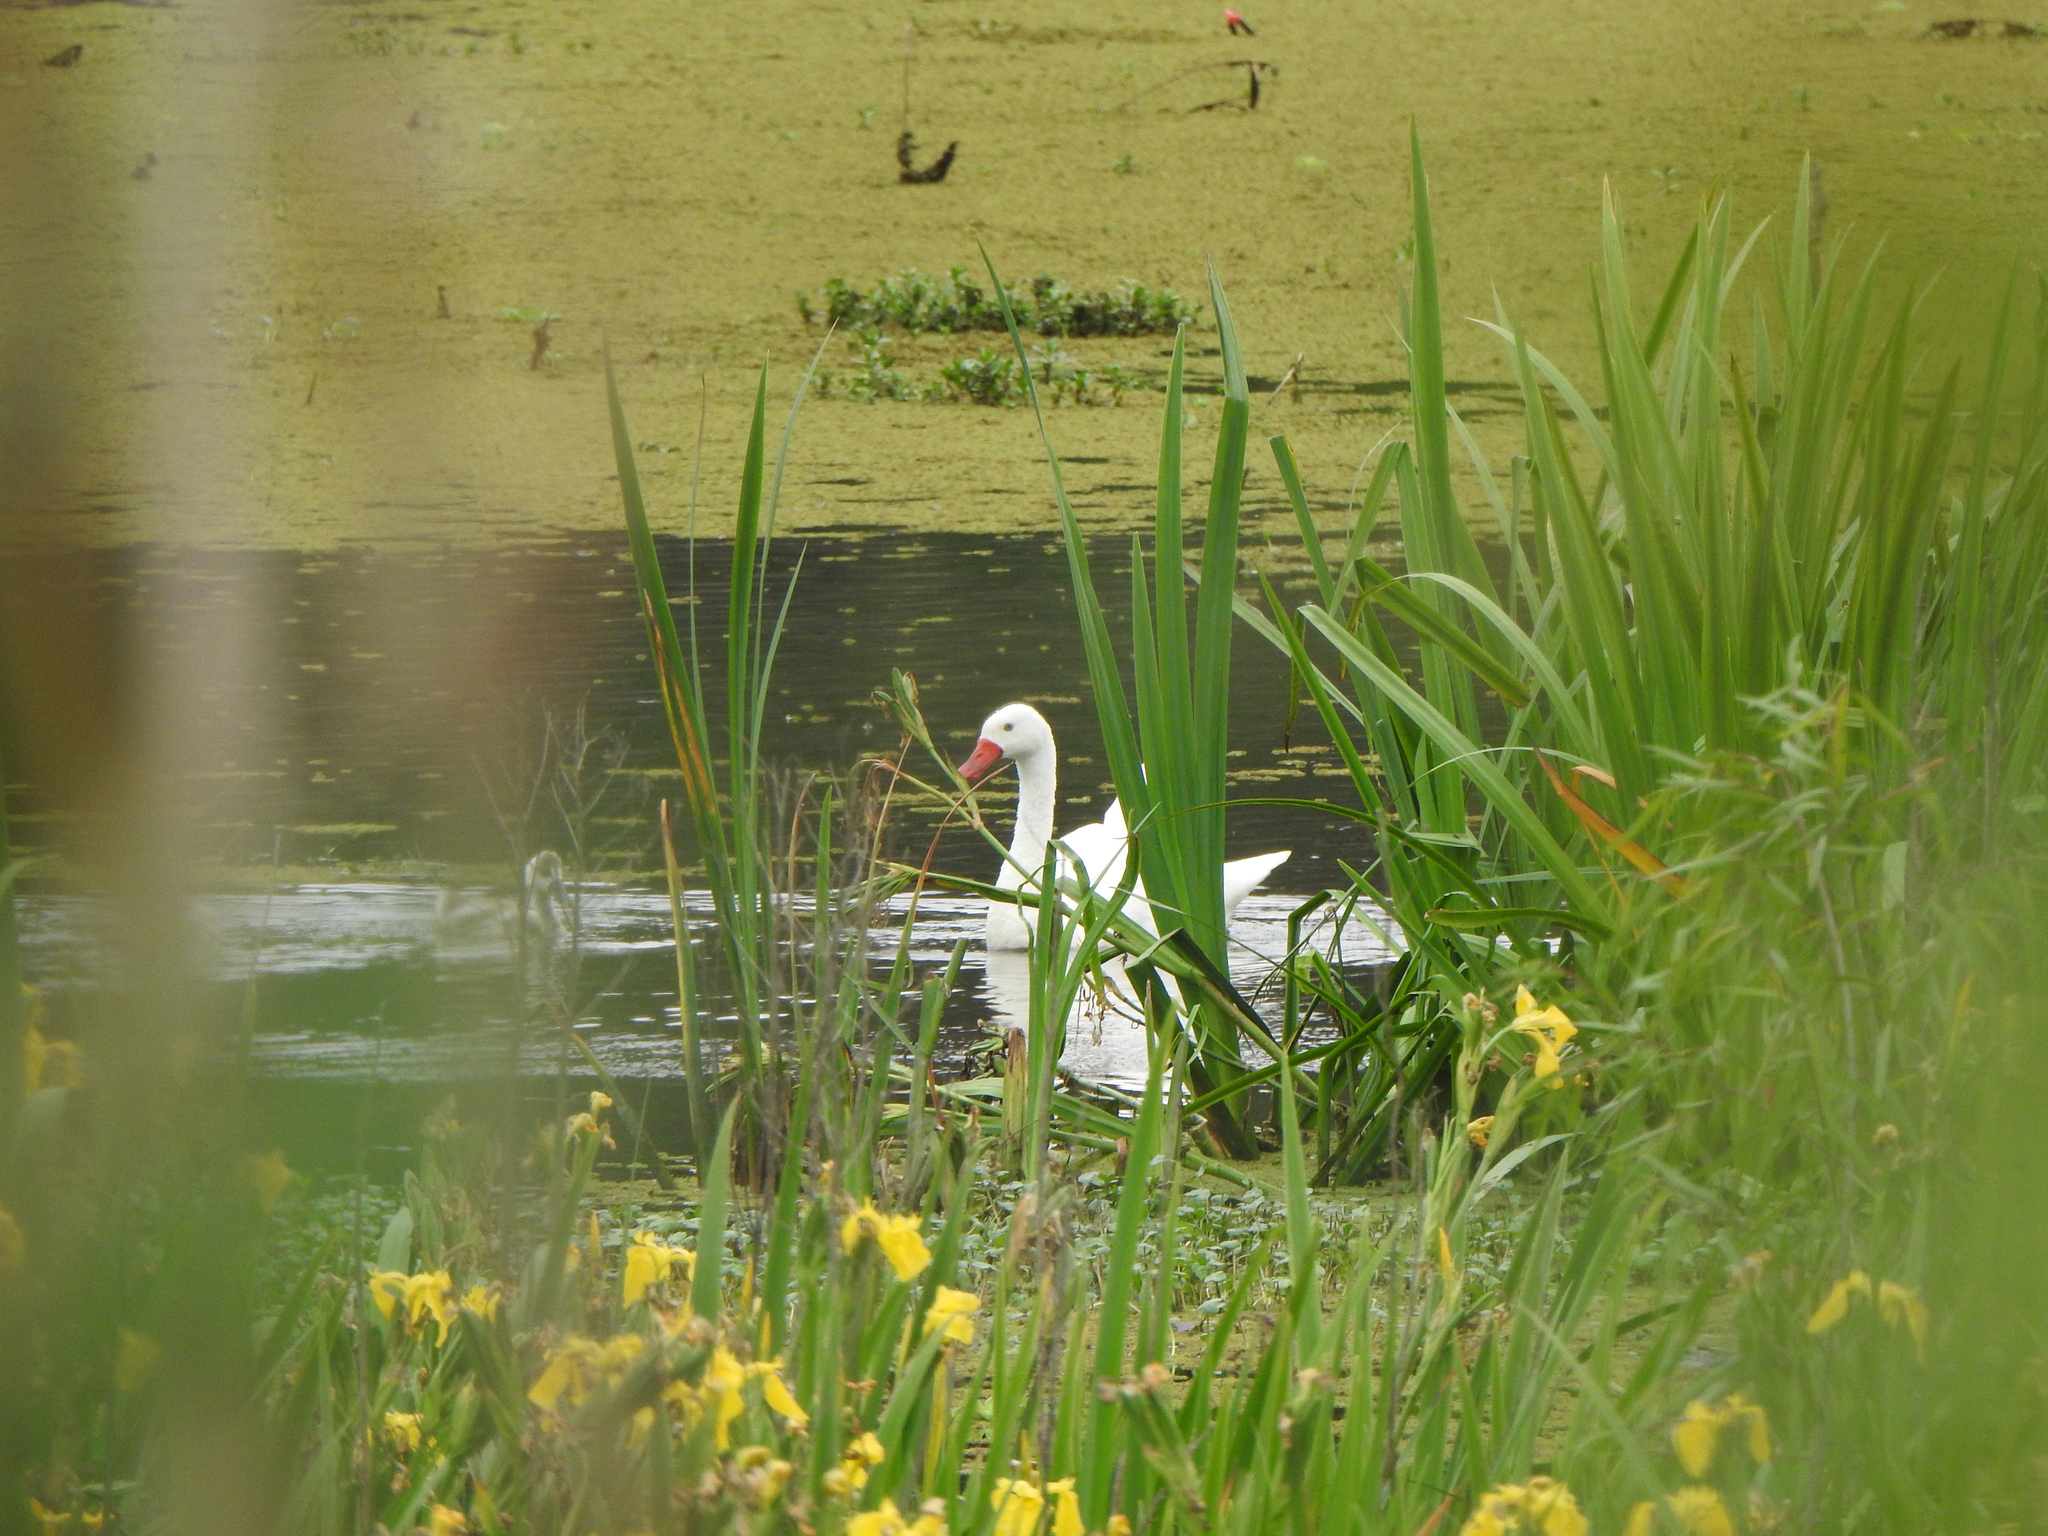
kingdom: Animalia
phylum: Chordata
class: Aves
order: Anseriformes
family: Anatidae
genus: Coscoroba
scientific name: Coscoroba coscoroba
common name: Coscoroba swan
